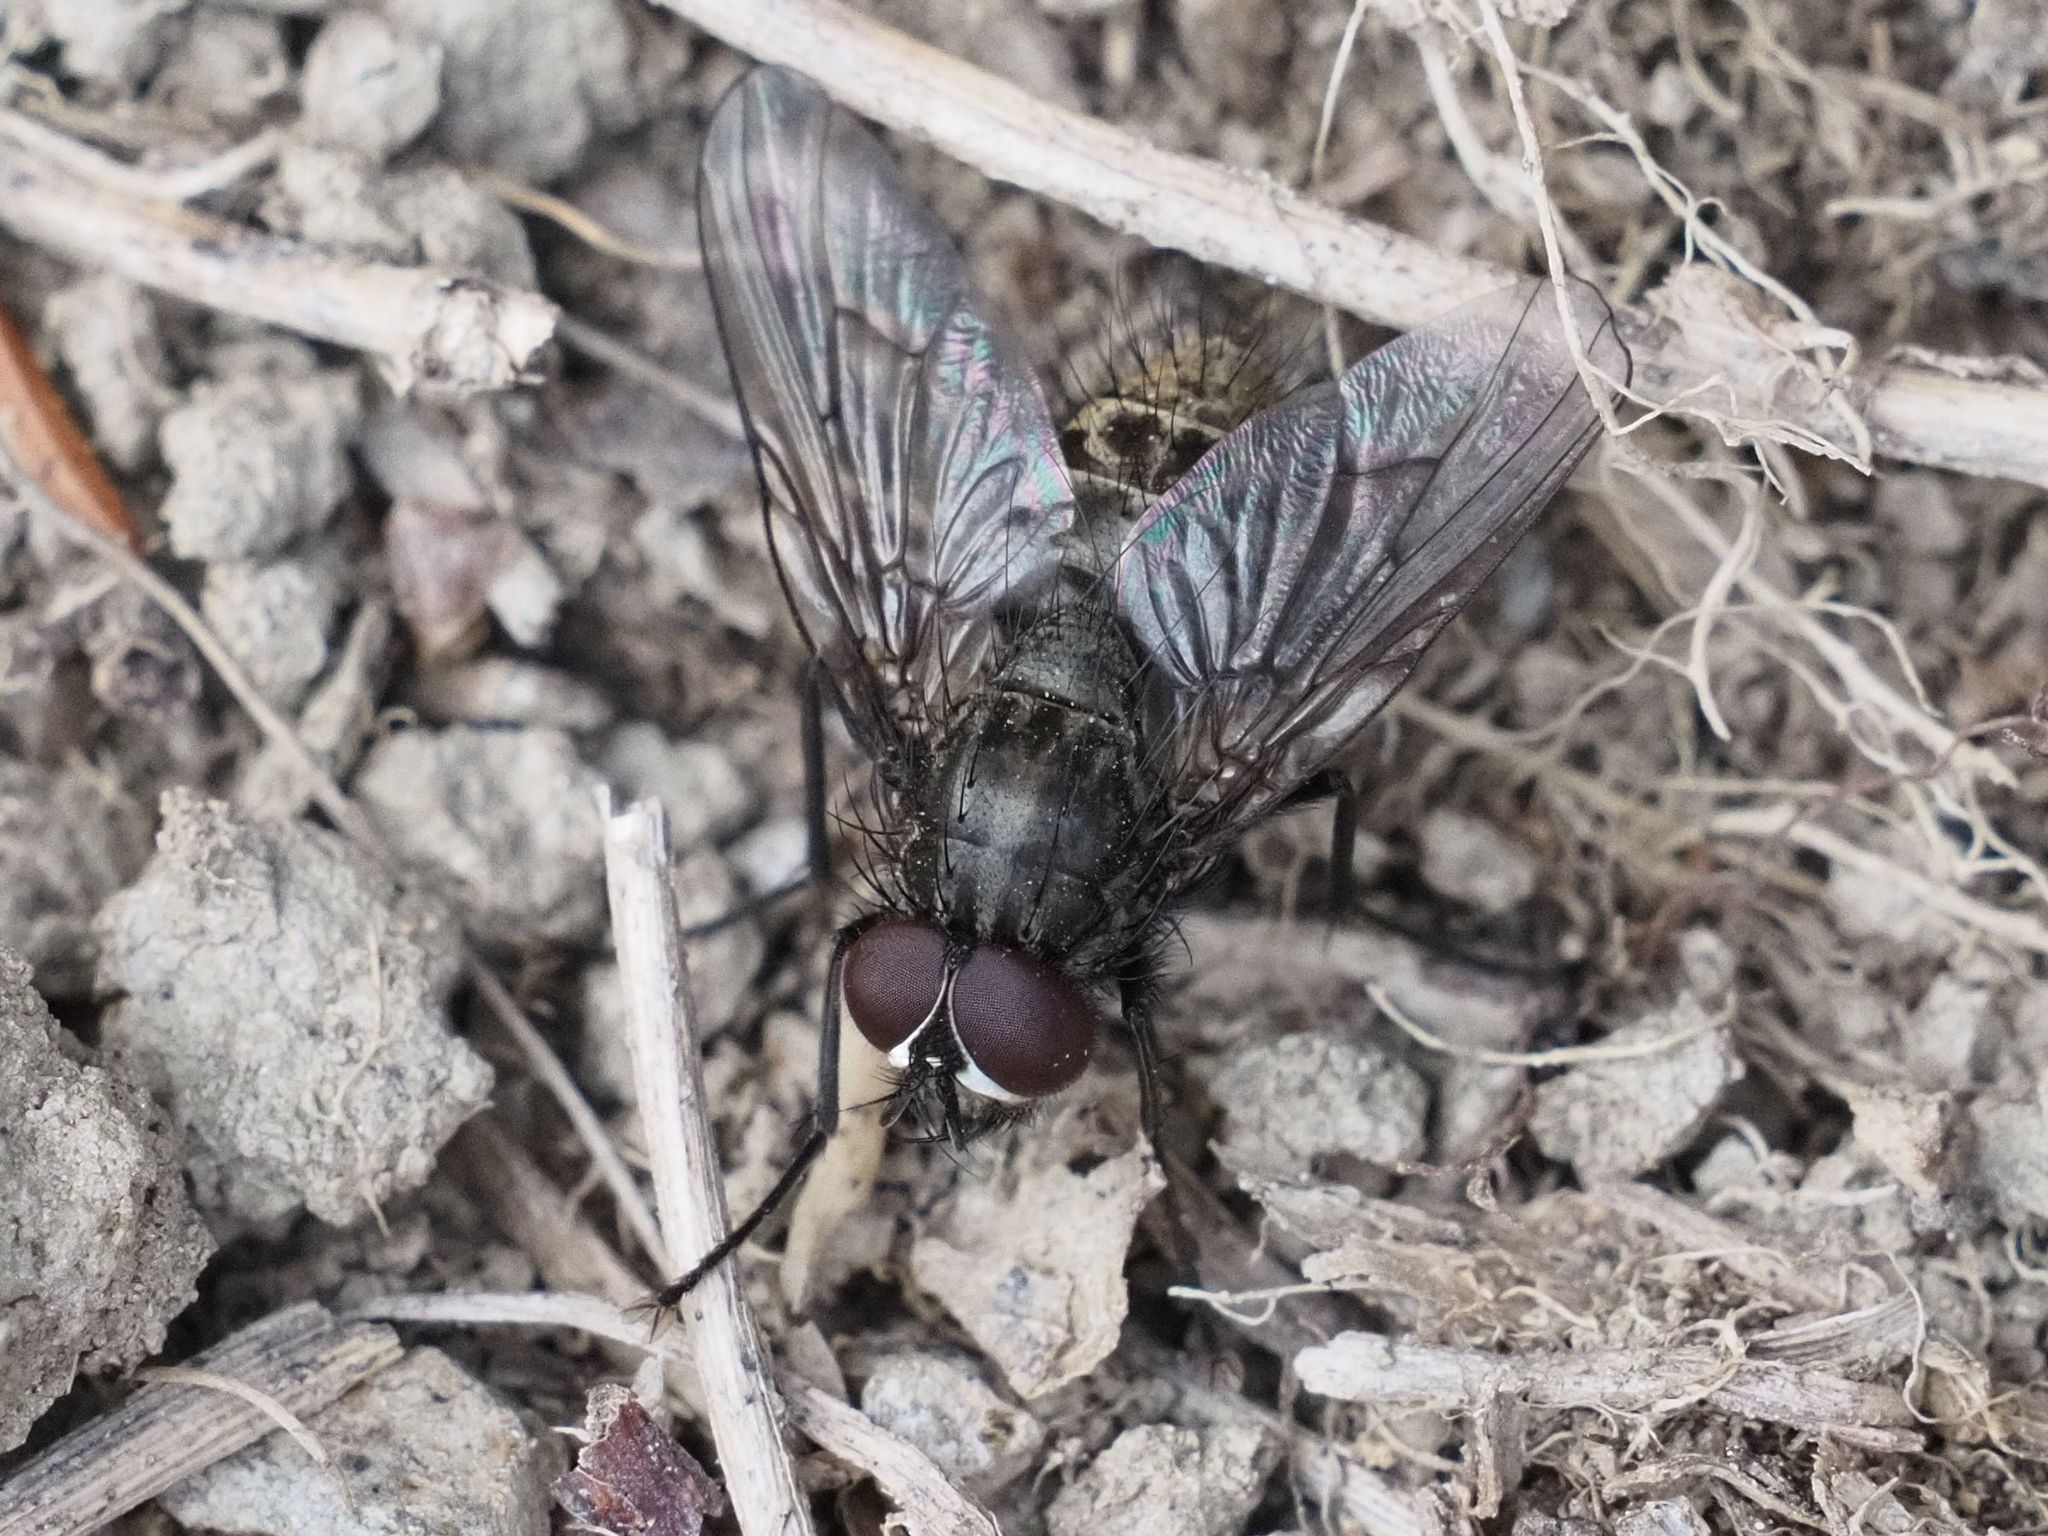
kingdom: Animalia
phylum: Arthropoda
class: Insecta
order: Diptera
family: Muscidae
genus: Helina
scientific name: Helina evecta
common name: Muscid fly
